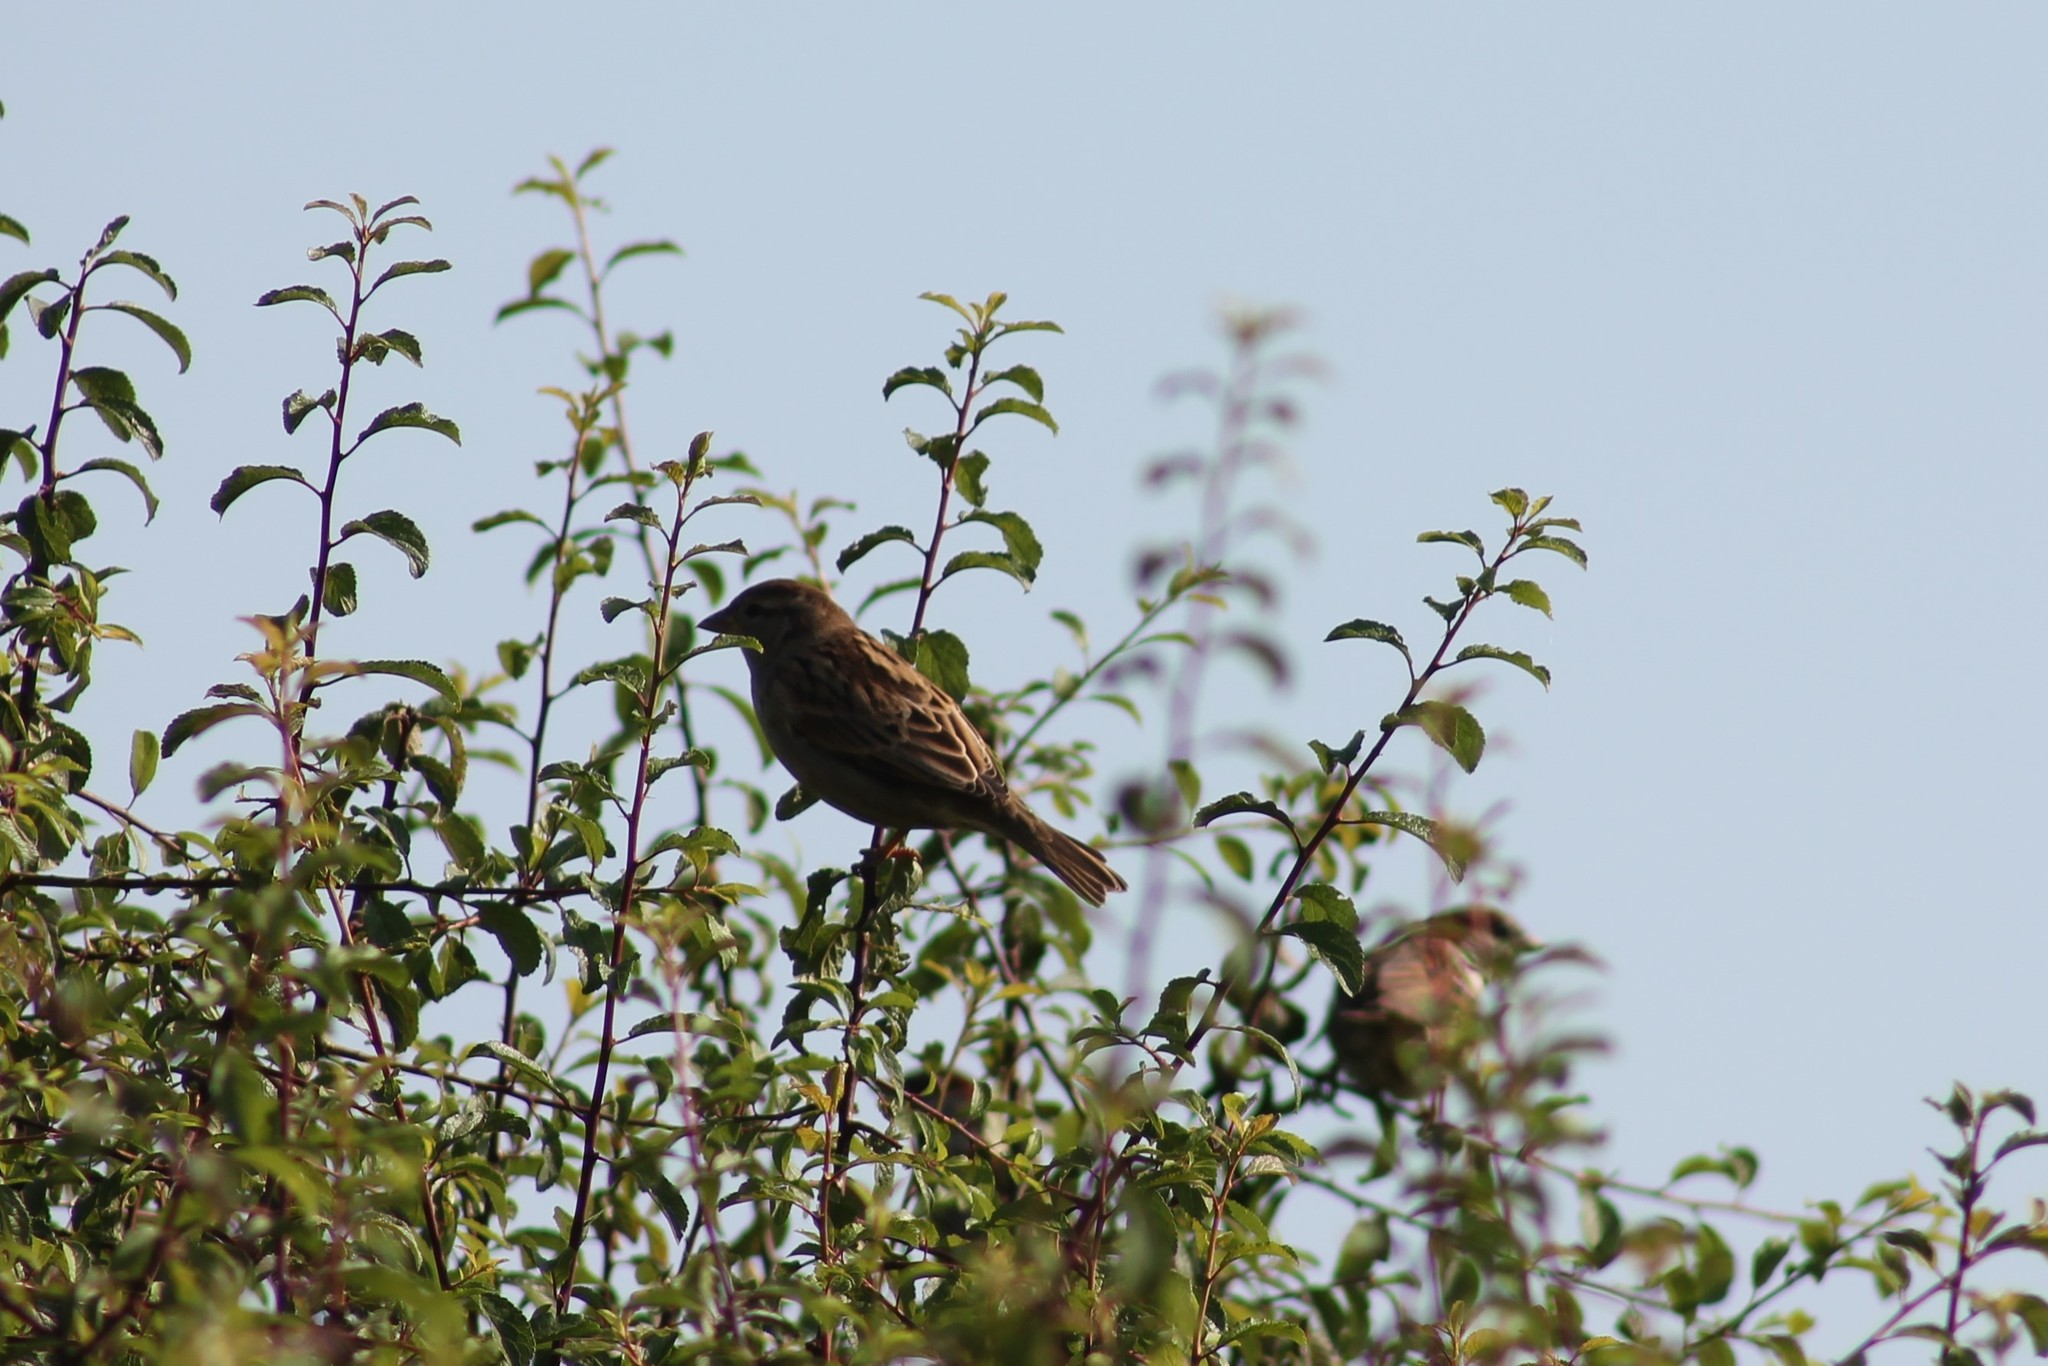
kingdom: Animalia
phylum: Chordata
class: Aves
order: Passeriformes
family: Passeridae
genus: Passer
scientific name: Passer domesticus
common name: House sparrow
